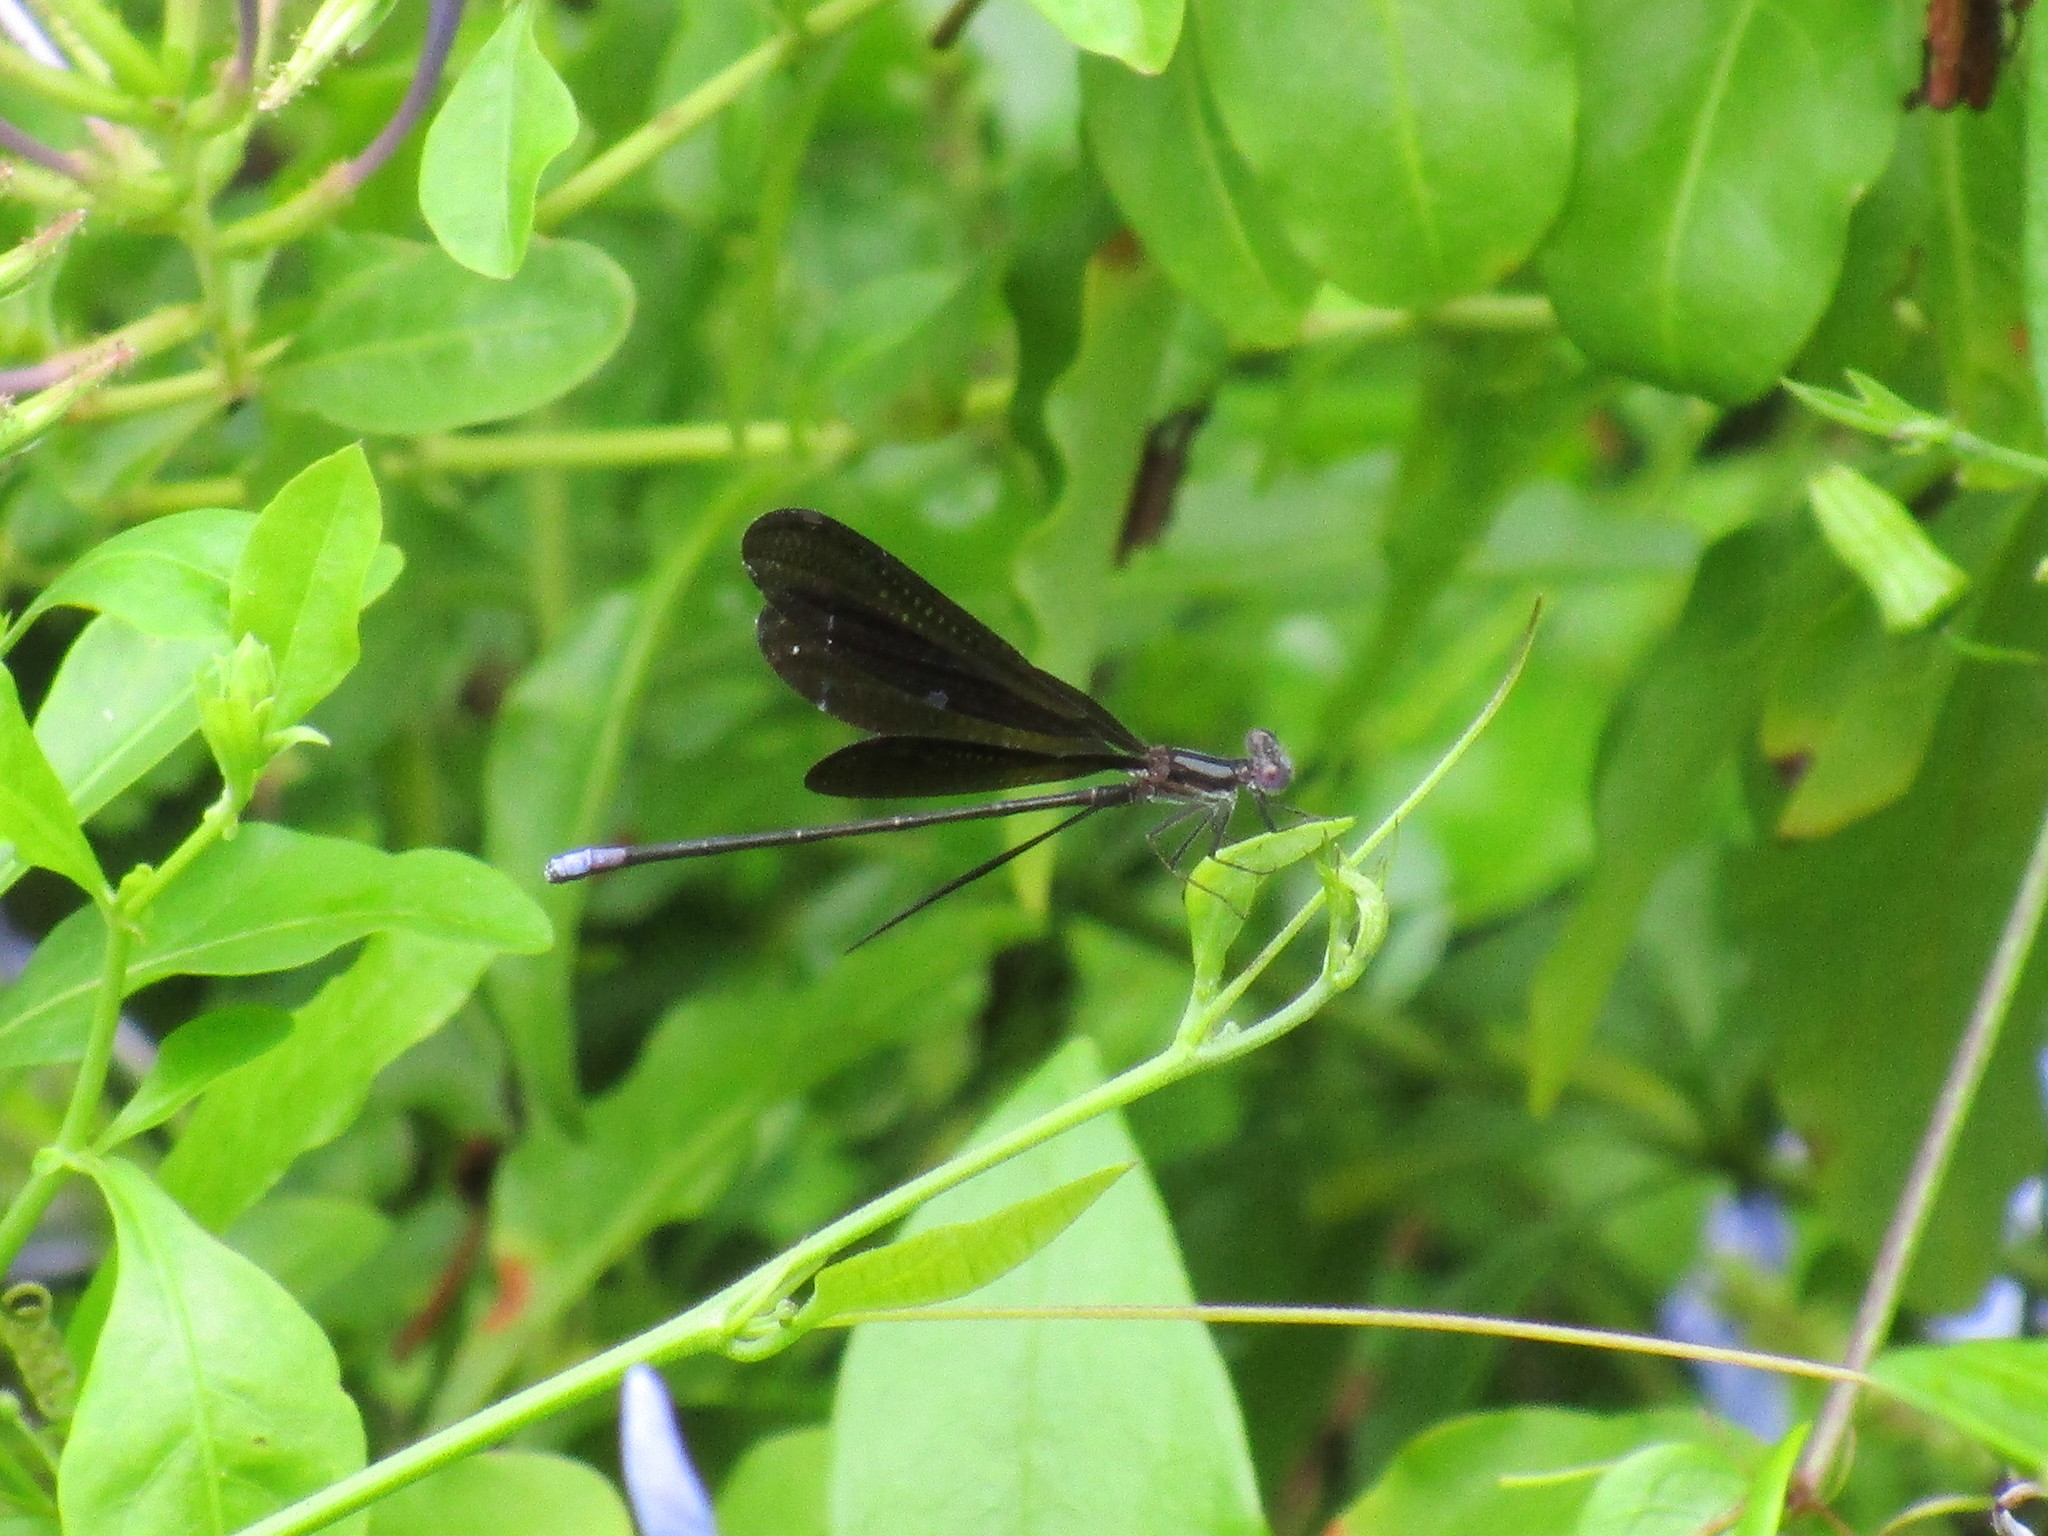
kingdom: Animalia
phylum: Arthropoda
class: Insecta
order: Odonata
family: Coenagrionidae
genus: Argia
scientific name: Argia fumipennis
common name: Variable dancer
